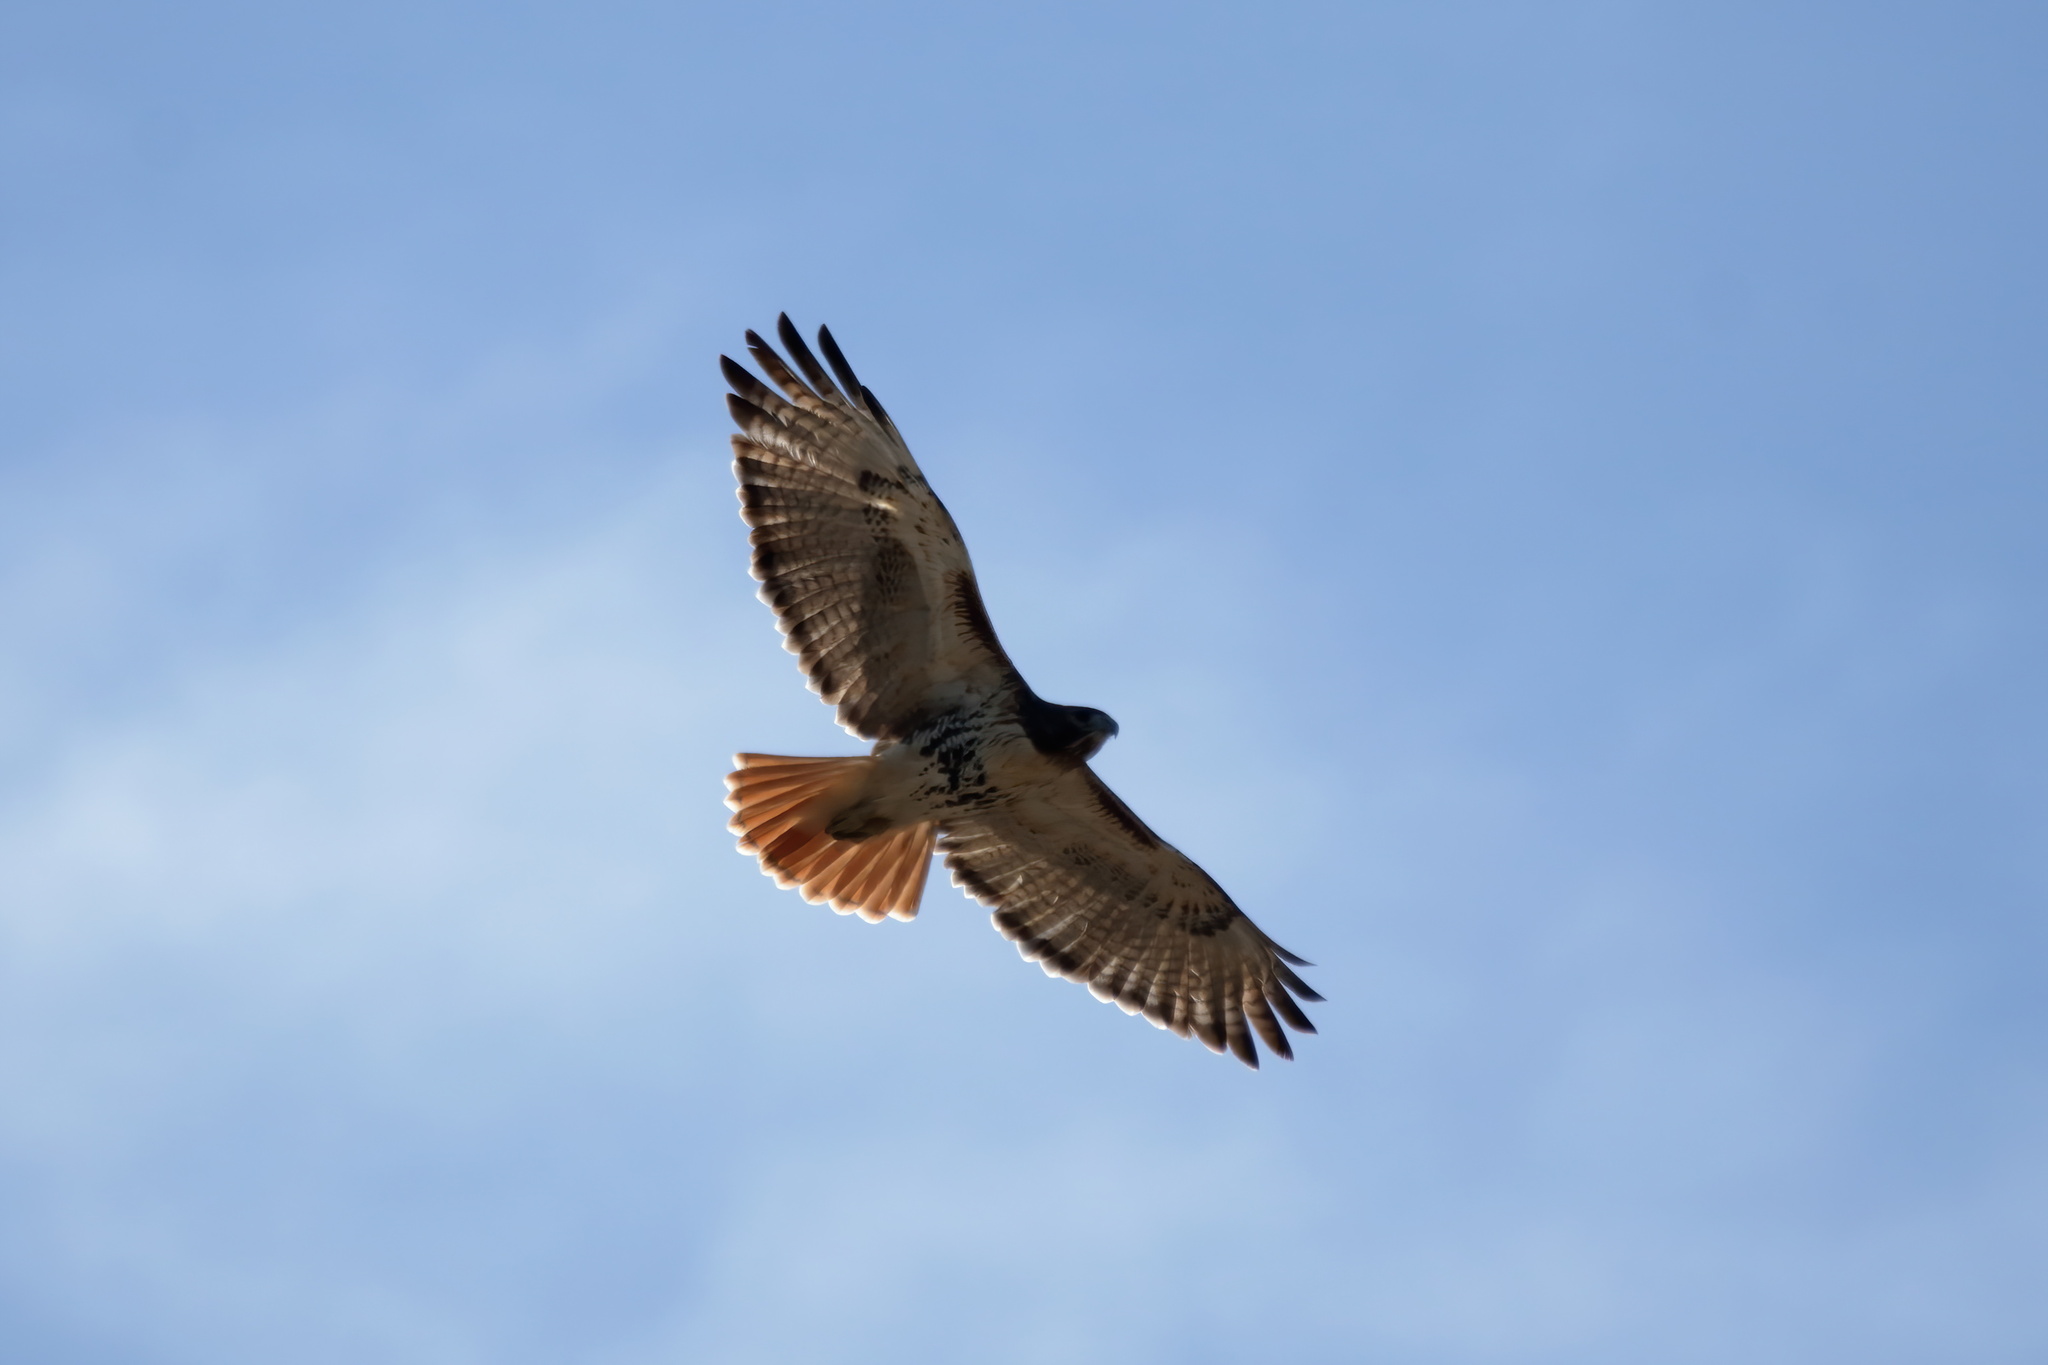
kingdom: Animalia
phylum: Chordata
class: Aves
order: Accipitriformes
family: Accipitridae
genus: Buteo
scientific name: Buteo jamaicensis
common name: Red-tailed hawk
